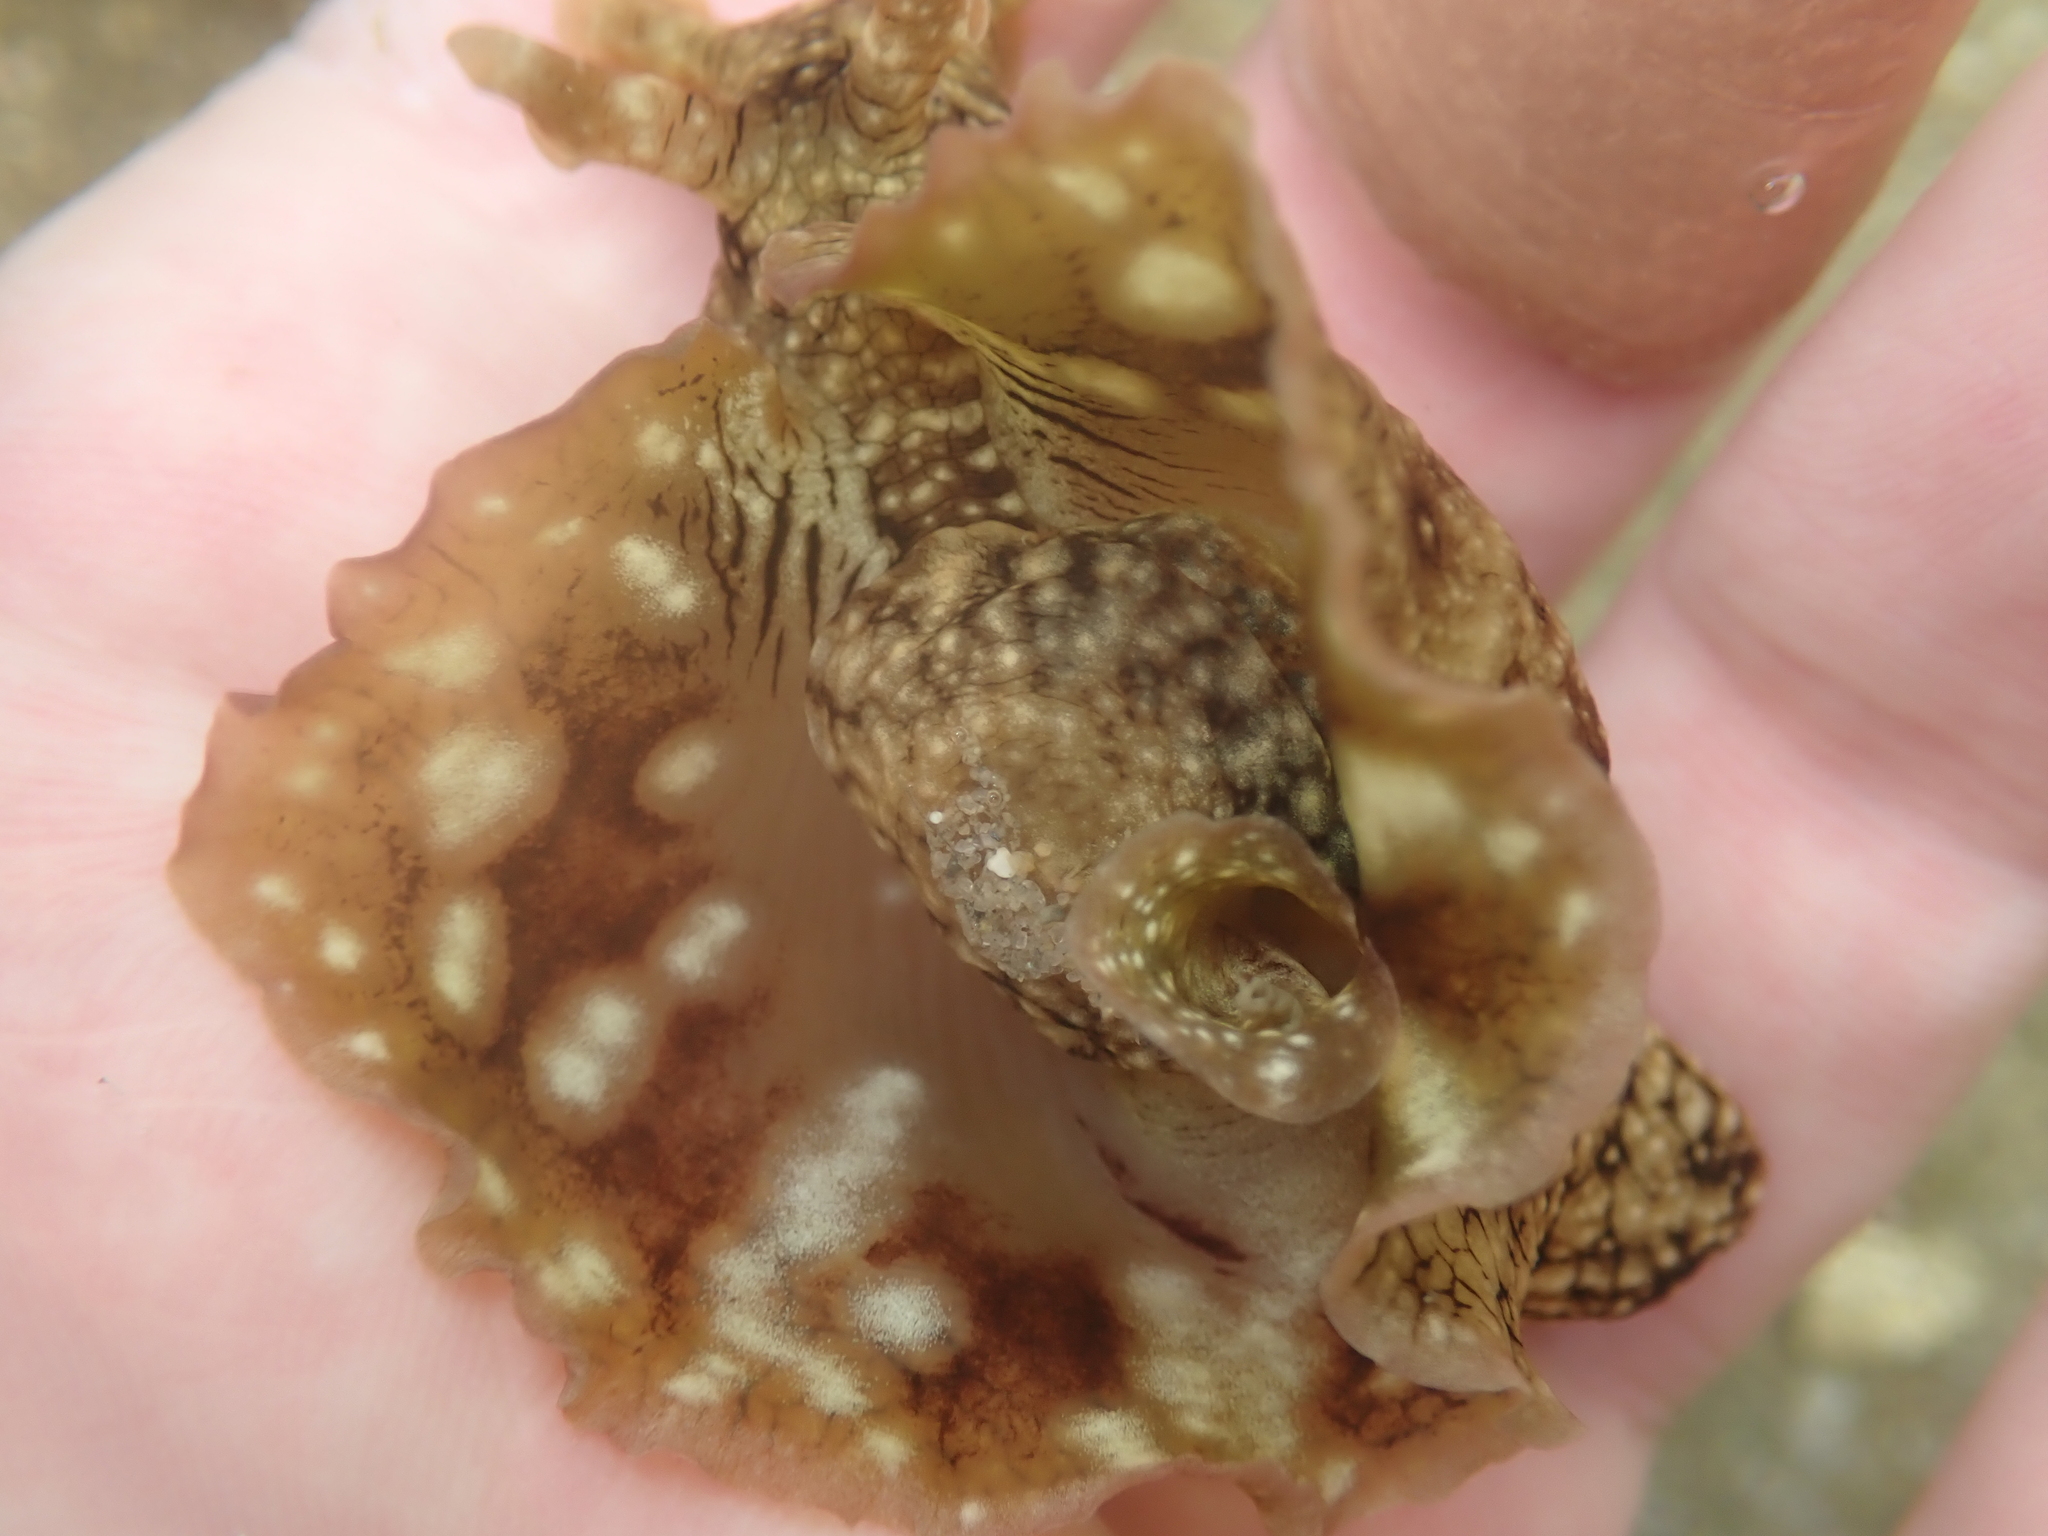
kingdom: Animalia
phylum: Mollusca
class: Gastropoda
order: Aplysiida
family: Aplysiidae
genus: Aplysia
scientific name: Aplysia argus
